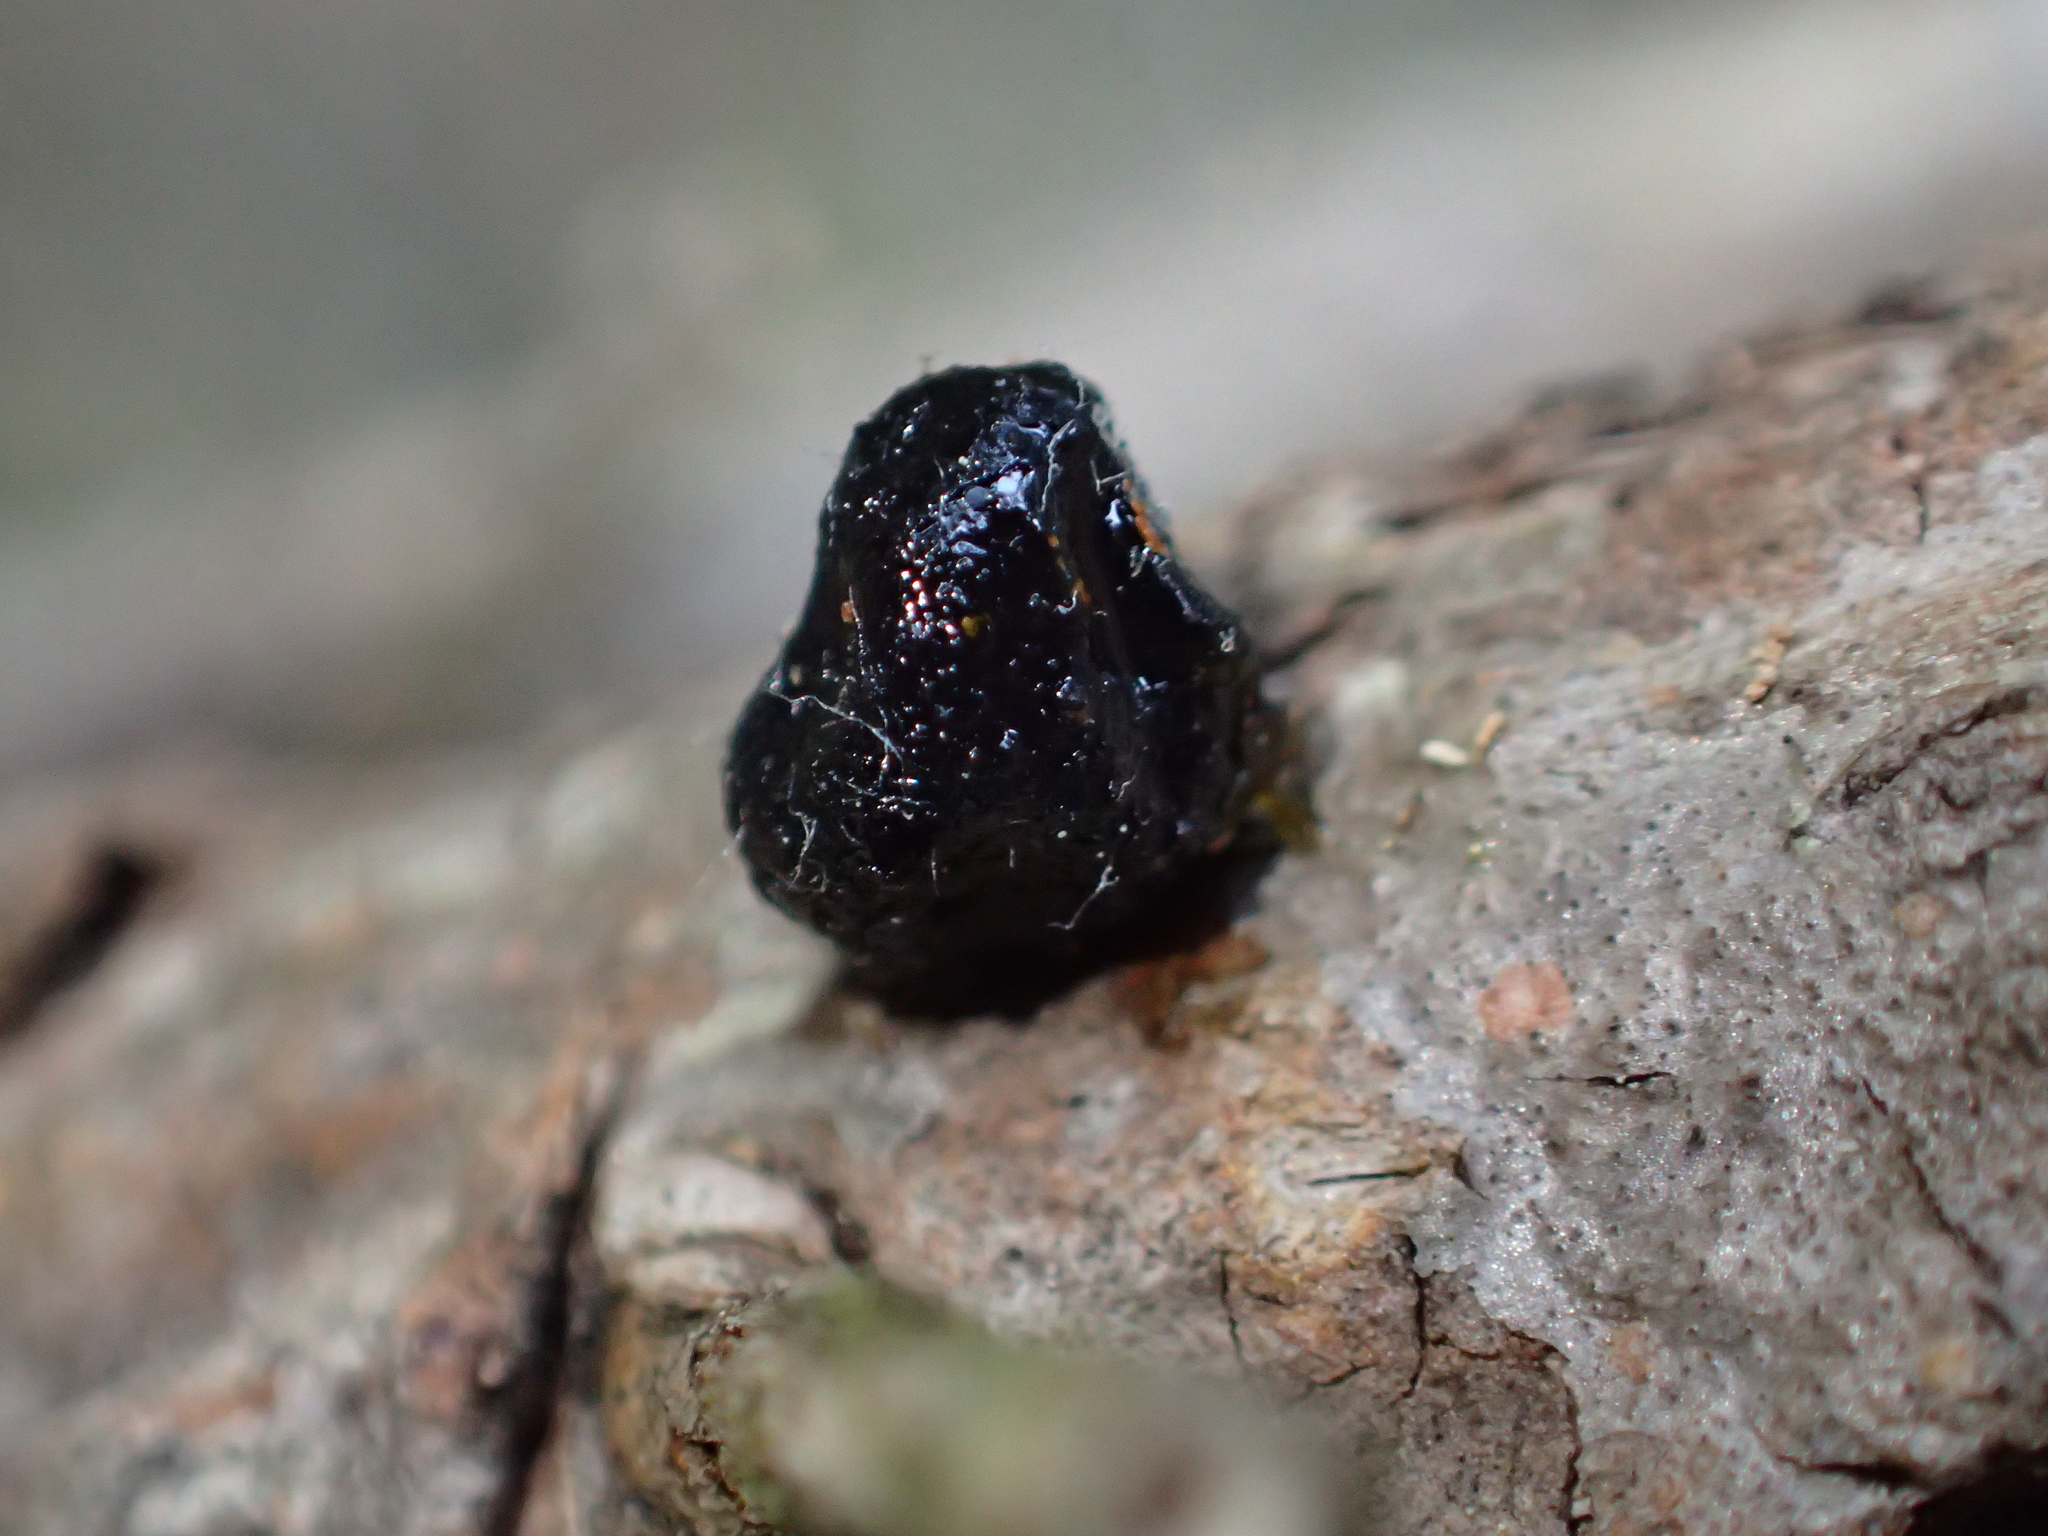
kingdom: Plantae
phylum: Tracheophyta
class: Magnoliopsida
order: Apiales
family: Pittosporaceae
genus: Pittosporum
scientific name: Pittosporum crassifolium
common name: Karo
